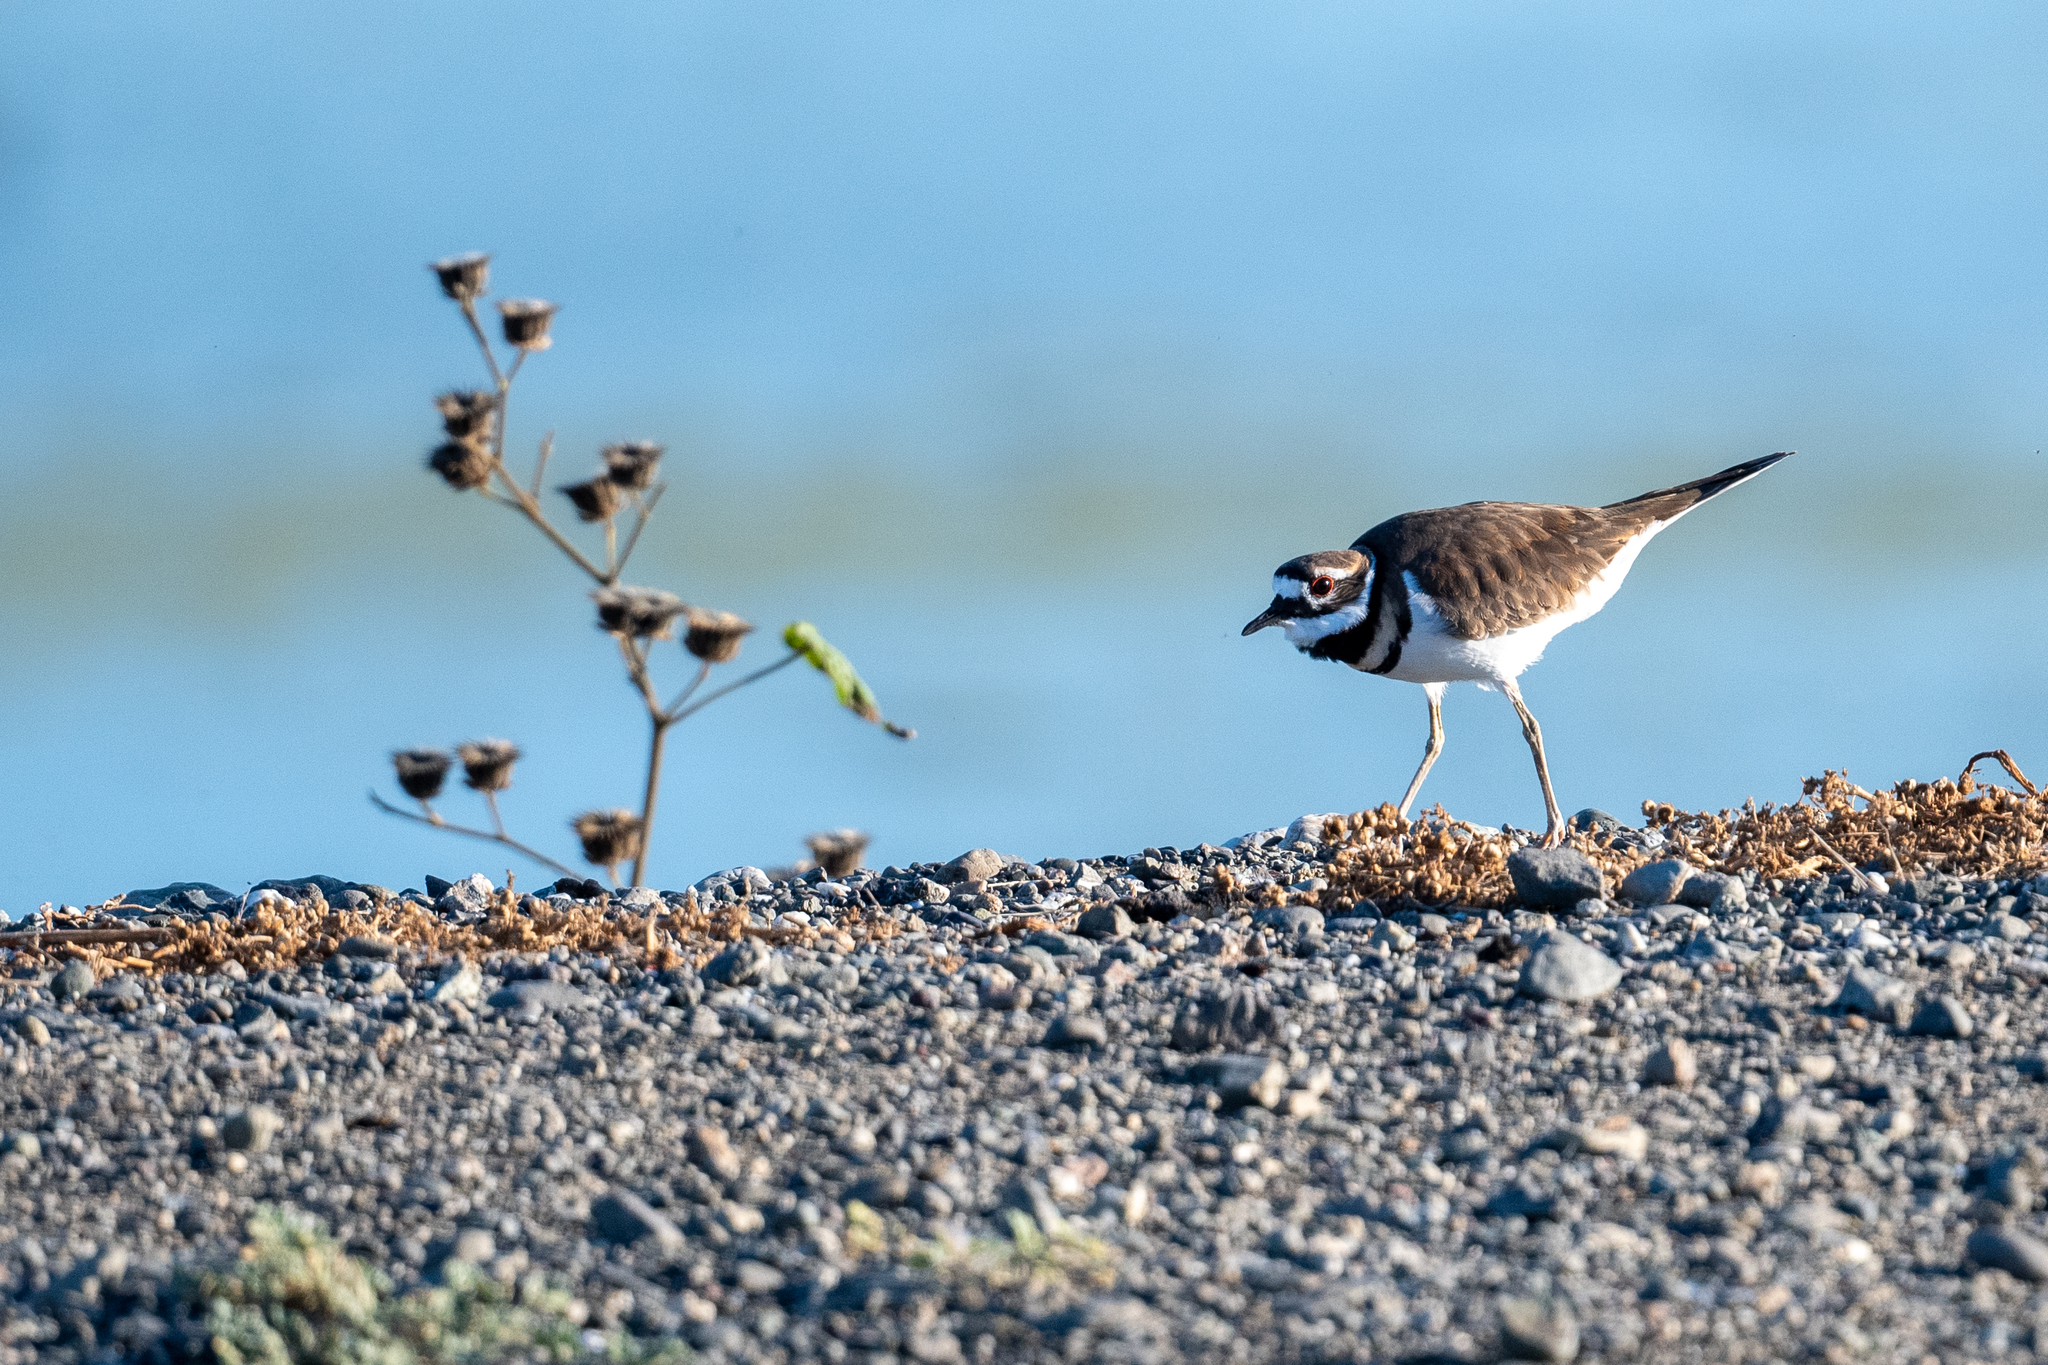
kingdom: Animalia
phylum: Chordata
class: Aves
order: Charadriiformes
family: Charadriidae
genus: Charadrius
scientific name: Charadrius vociferus
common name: Killdeer
